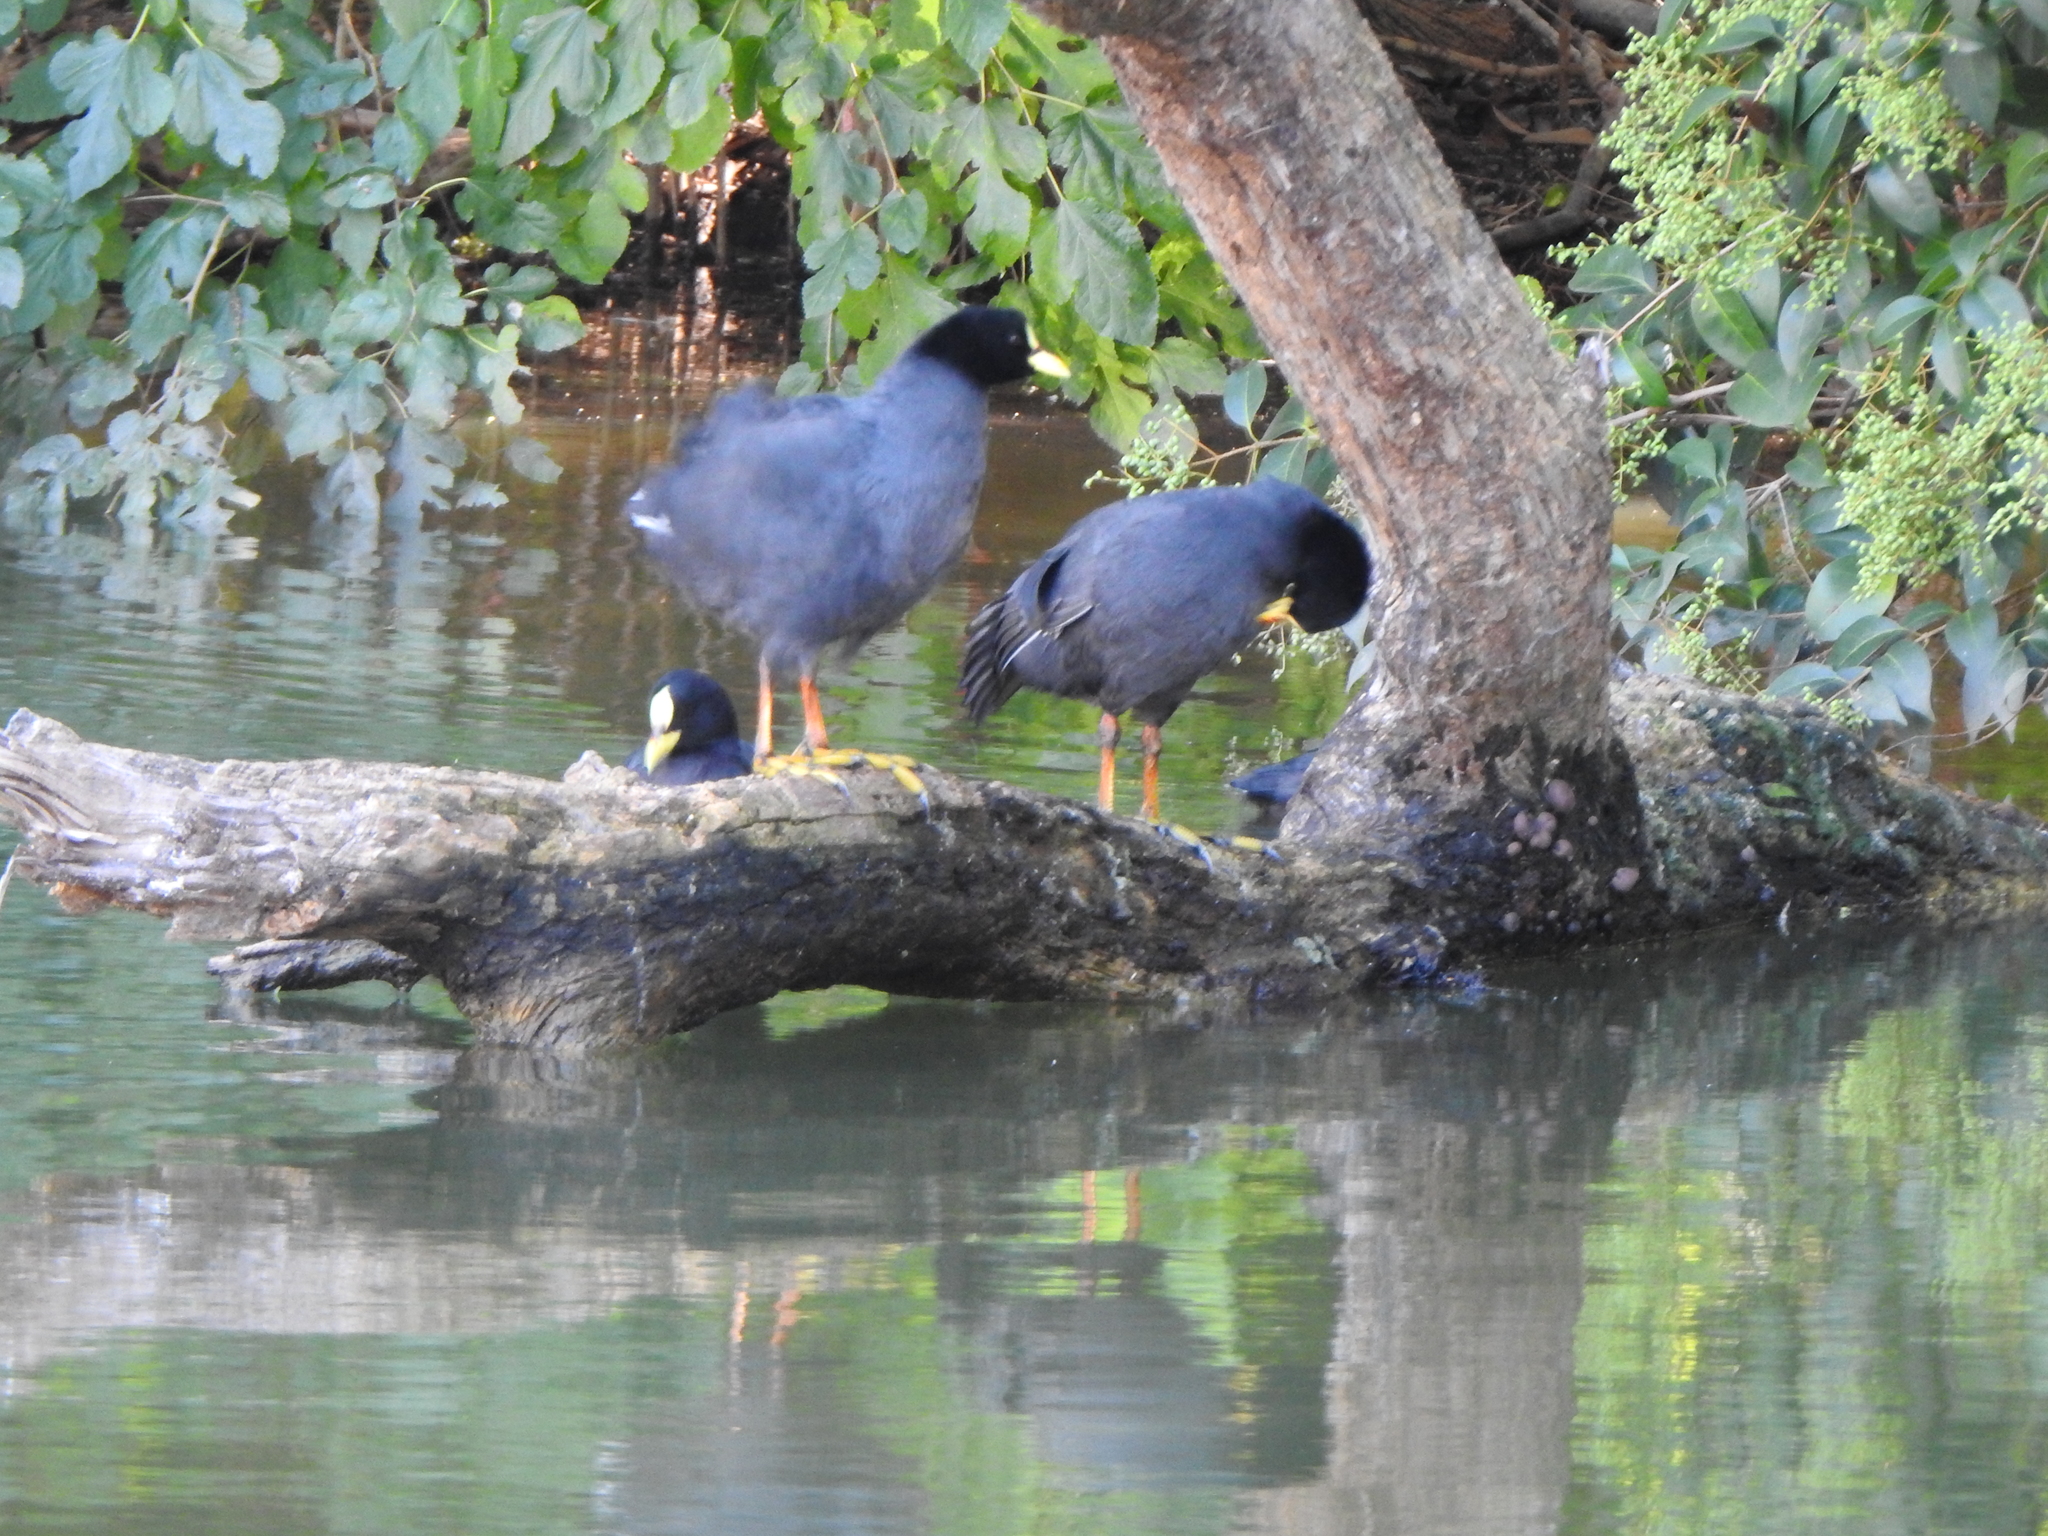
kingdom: Animalia
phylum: Chordata
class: Aves
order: Gruiformes
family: Rallidae
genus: Fulica
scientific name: Fulica armillata
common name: Red-gartered coot
